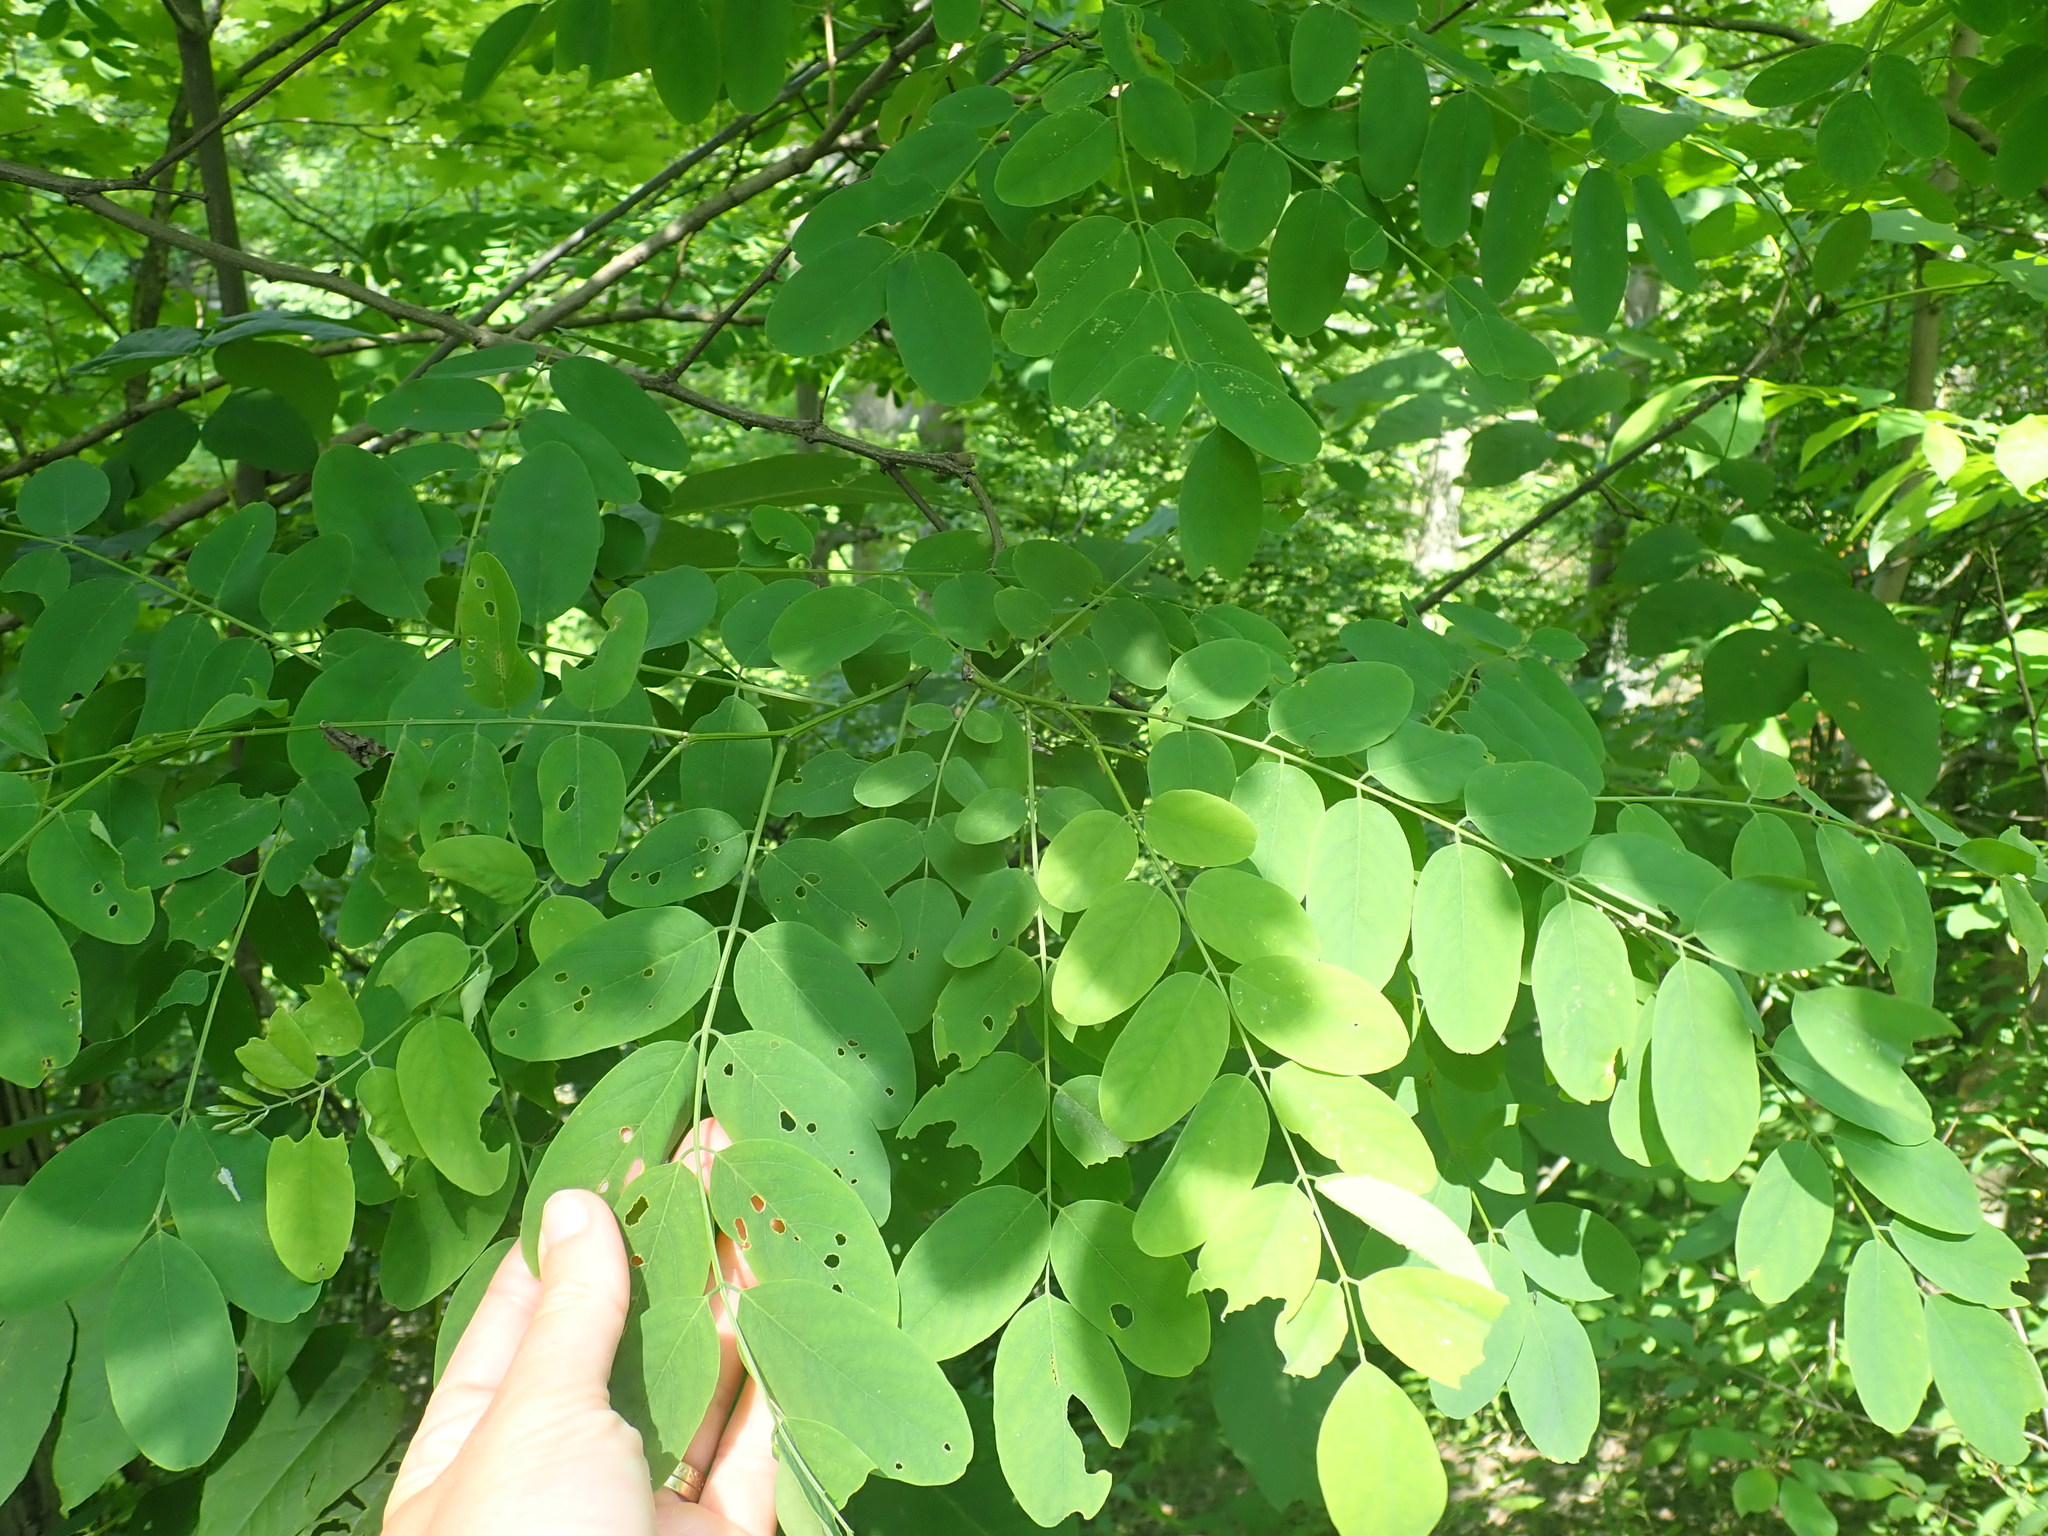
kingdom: Plantae
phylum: Tracheophyta
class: Magnoliopsida
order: Fabales
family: Fabaceae
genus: Robinia
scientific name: Robinia pseudoacacia
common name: Black locust
